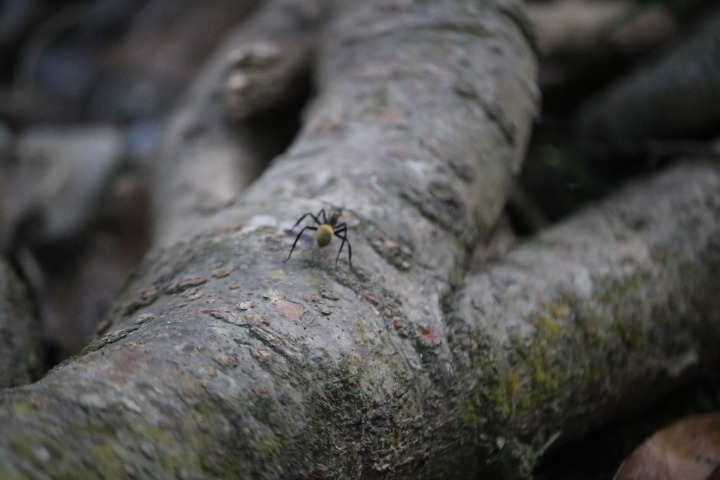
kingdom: Animalia
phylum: Arthropoda
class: Insecta
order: Hymenoptera
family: Formicidae
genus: Camponotus
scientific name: Camponotus sericeiventris
